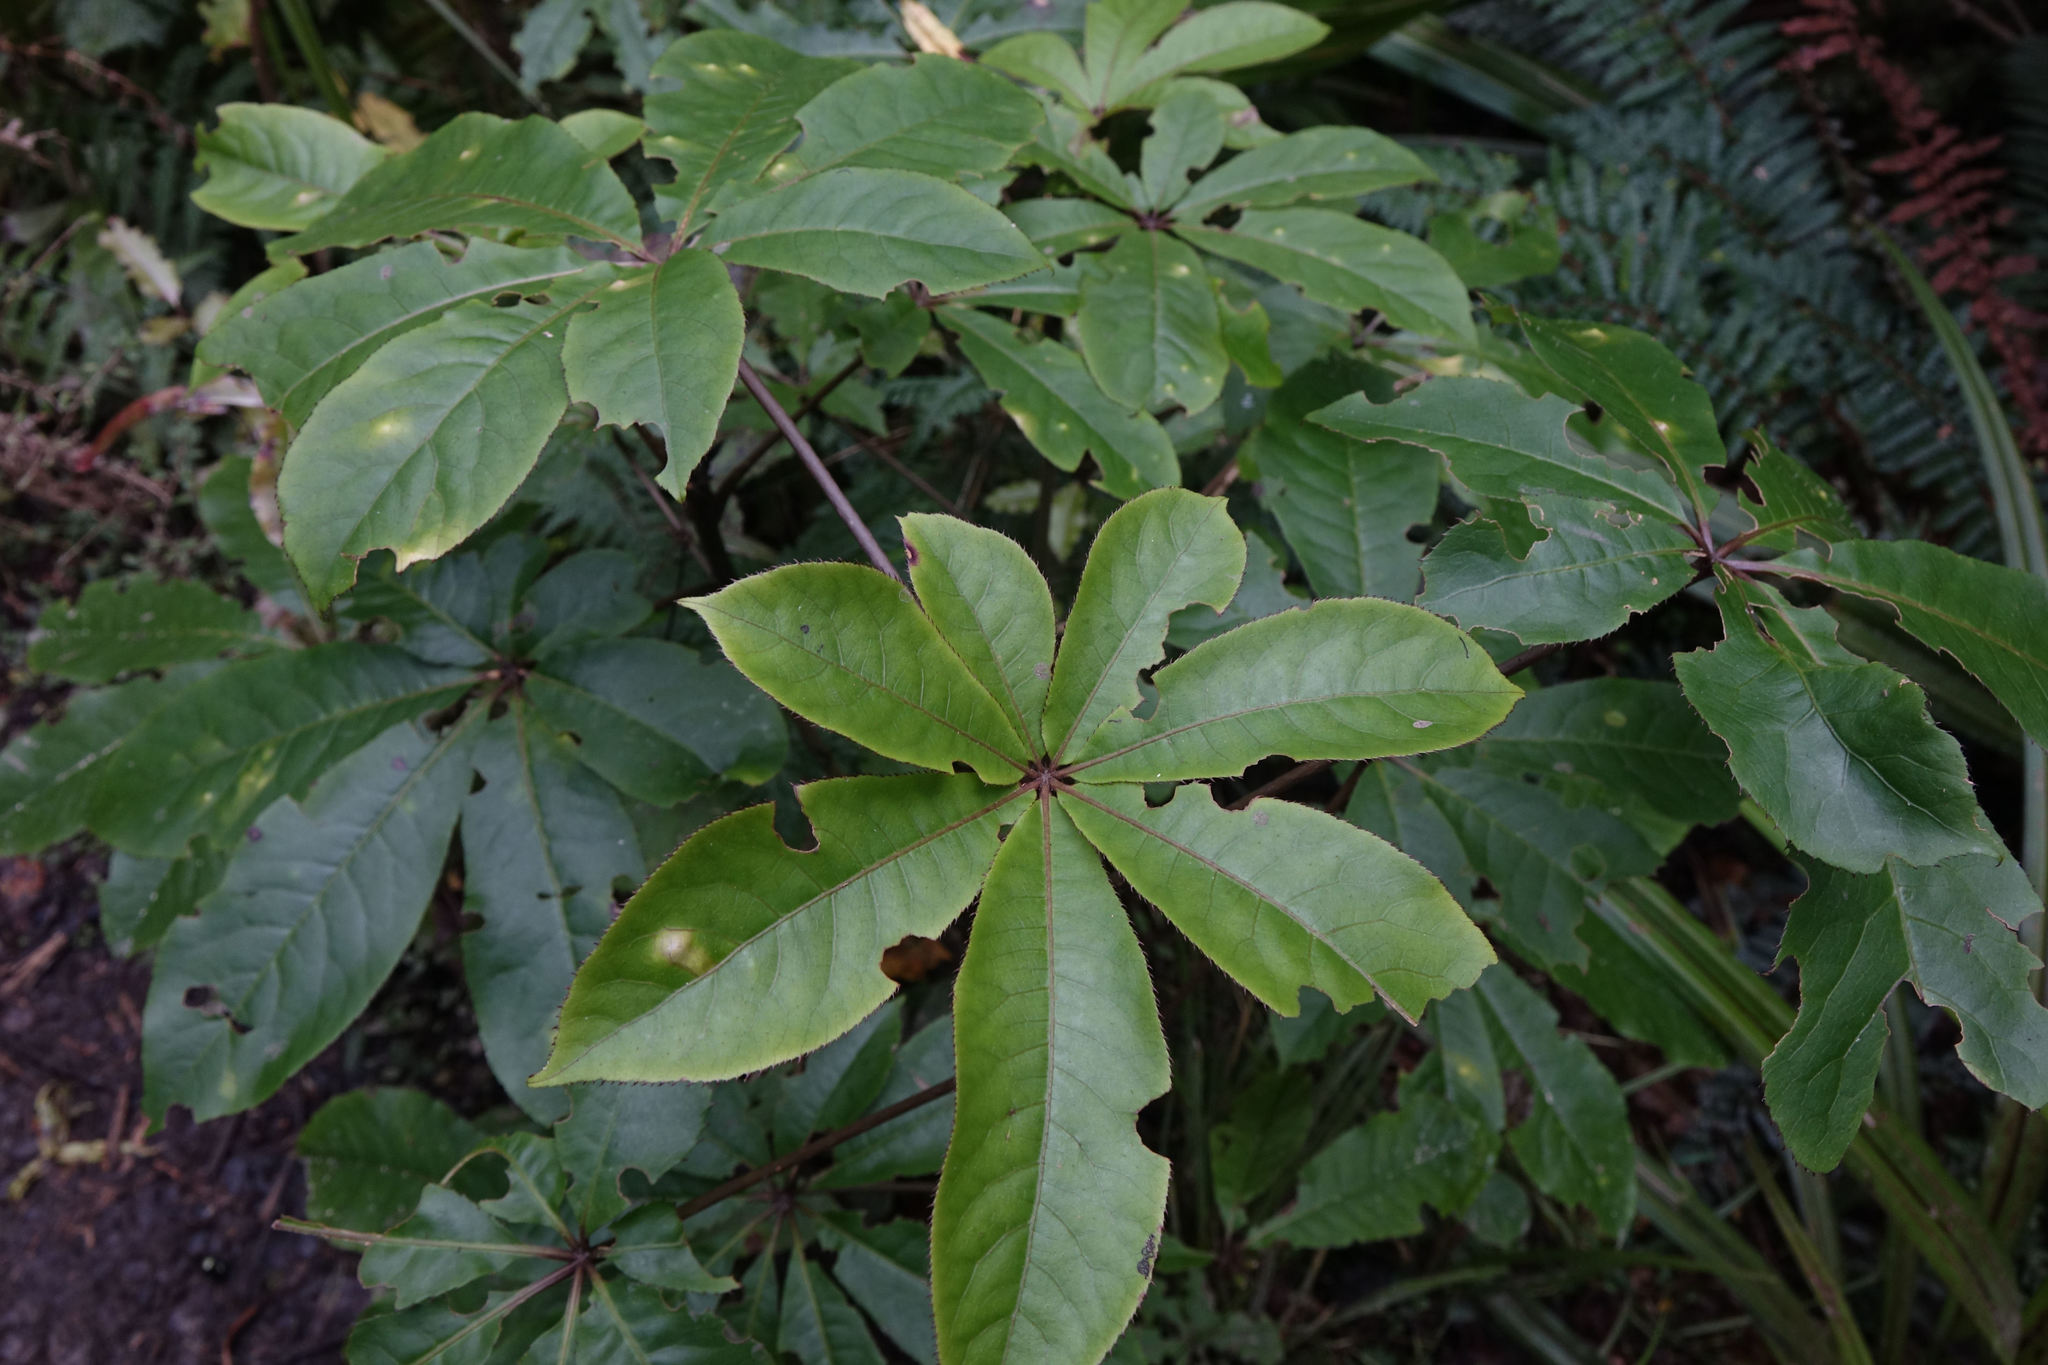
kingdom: Plantae
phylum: Tracheophyta
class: Magnoliopsida
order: Apiales
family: Araliaceae
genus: Schefflera
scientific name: Schefflera digitata
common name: Pate
